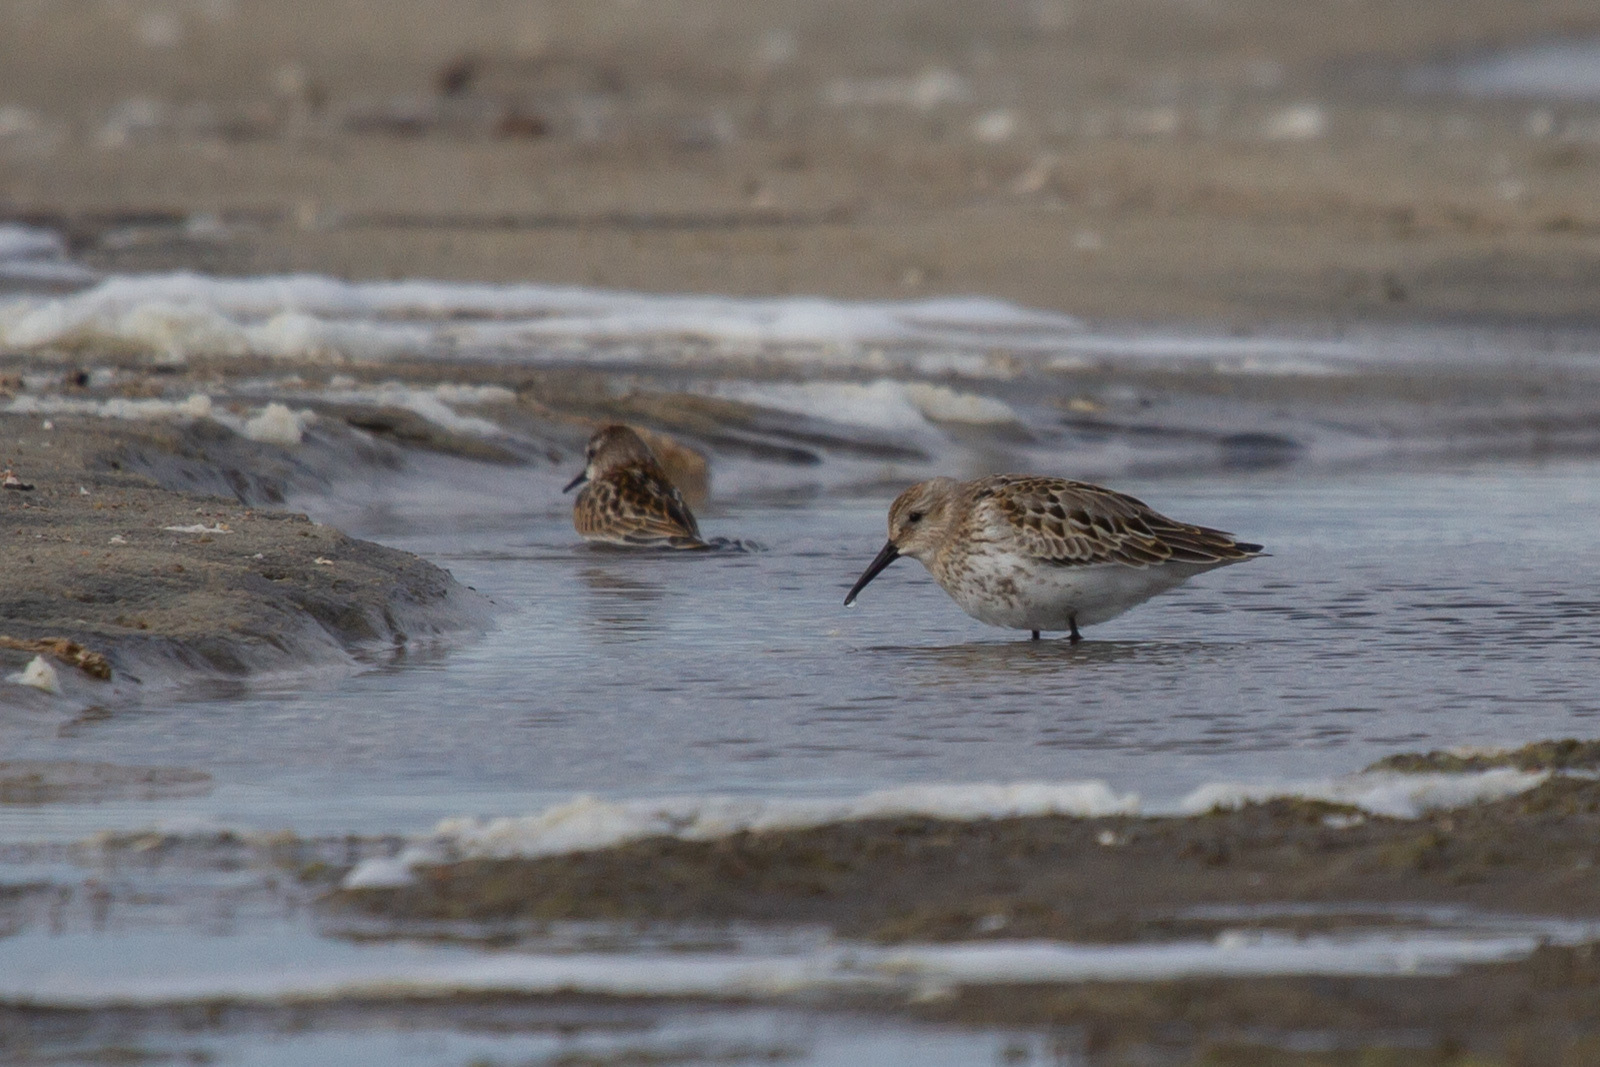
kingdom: Animalia
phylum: Chordata
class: Aves
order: Charadriiformes
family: Scolopacidae
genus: Calidris
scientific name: Calidris alpina
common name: Dunlin
